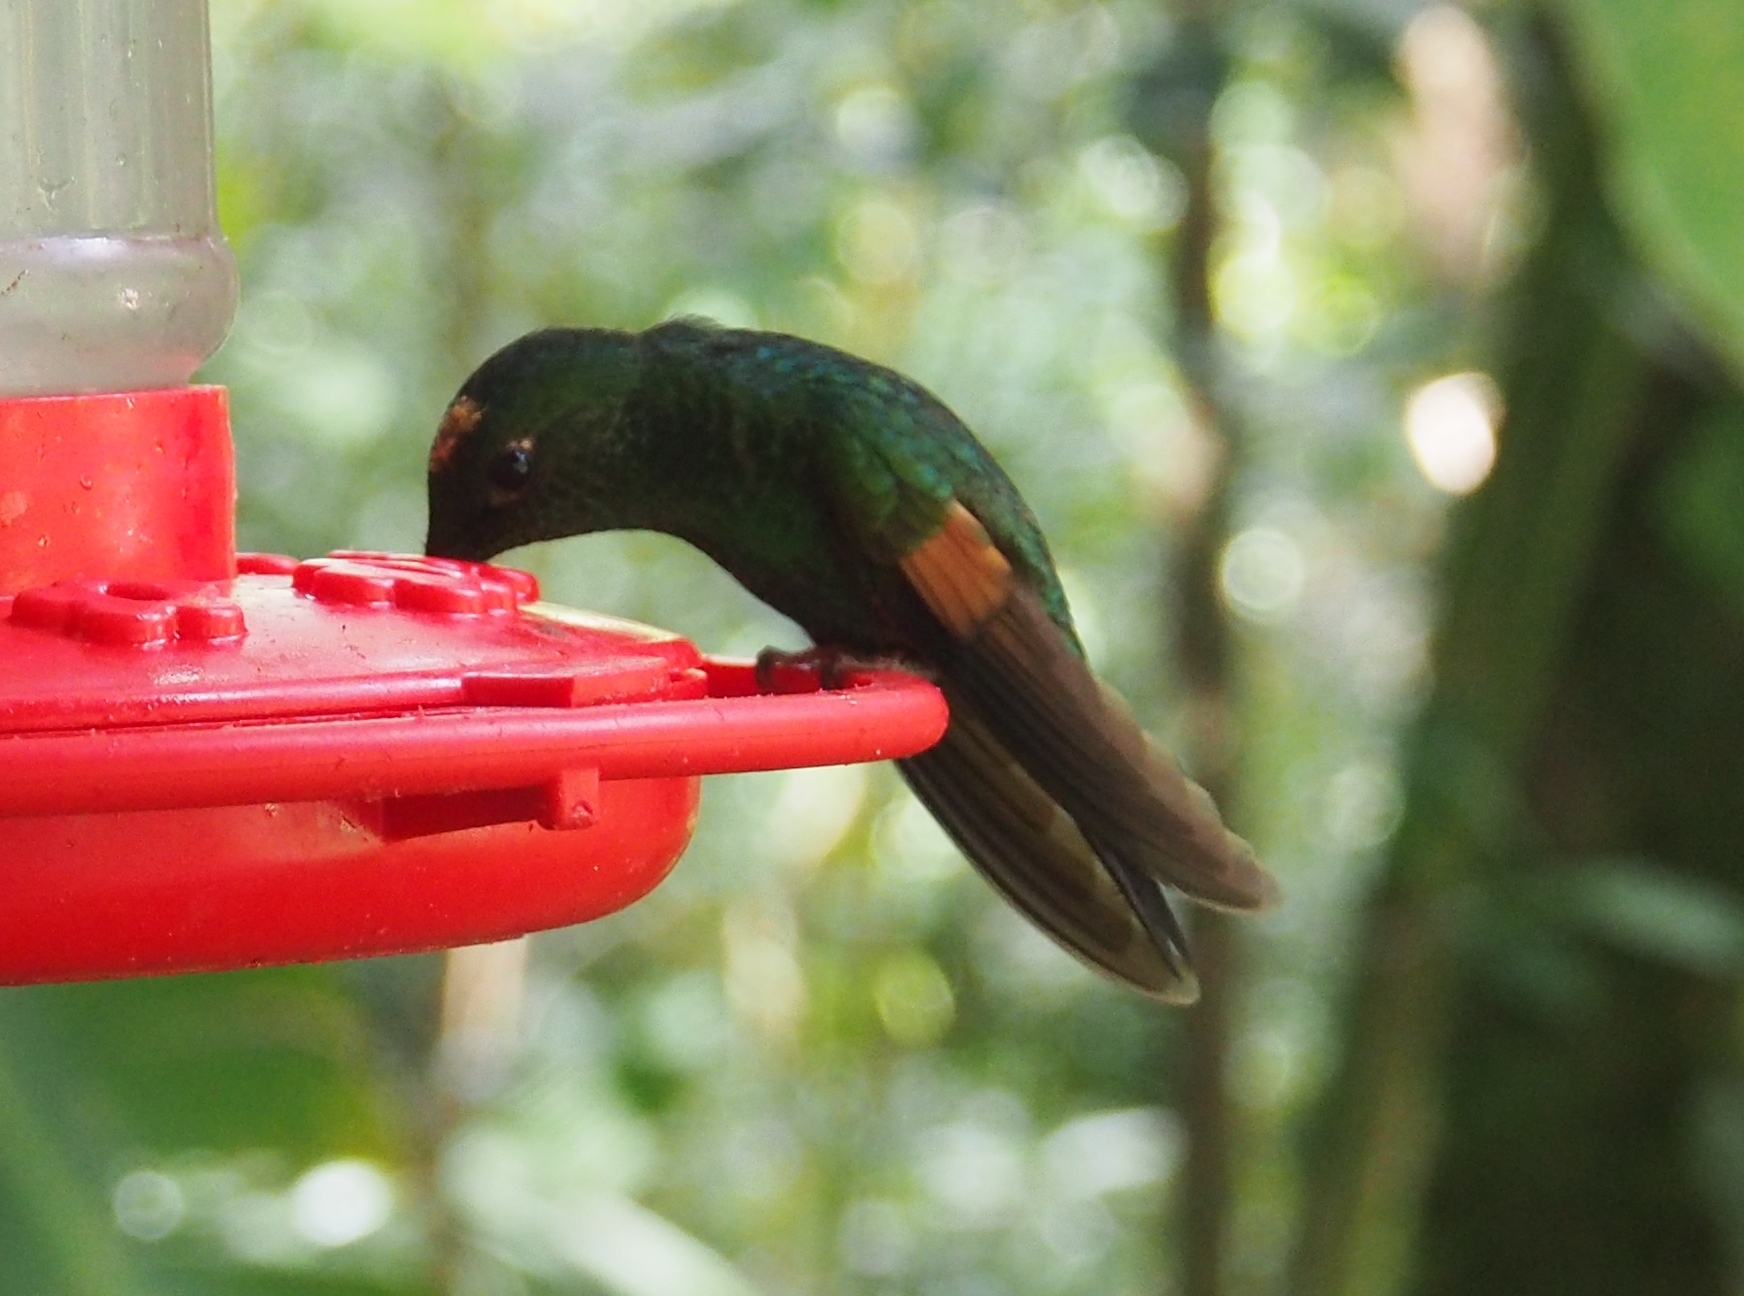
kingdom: Animalia
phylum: Chordata
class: Aves
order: Apodiformes
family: Trochilidae
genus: Eupherusa
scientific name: Eupherusa eximia
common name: Stripe-tailed hummingbird
